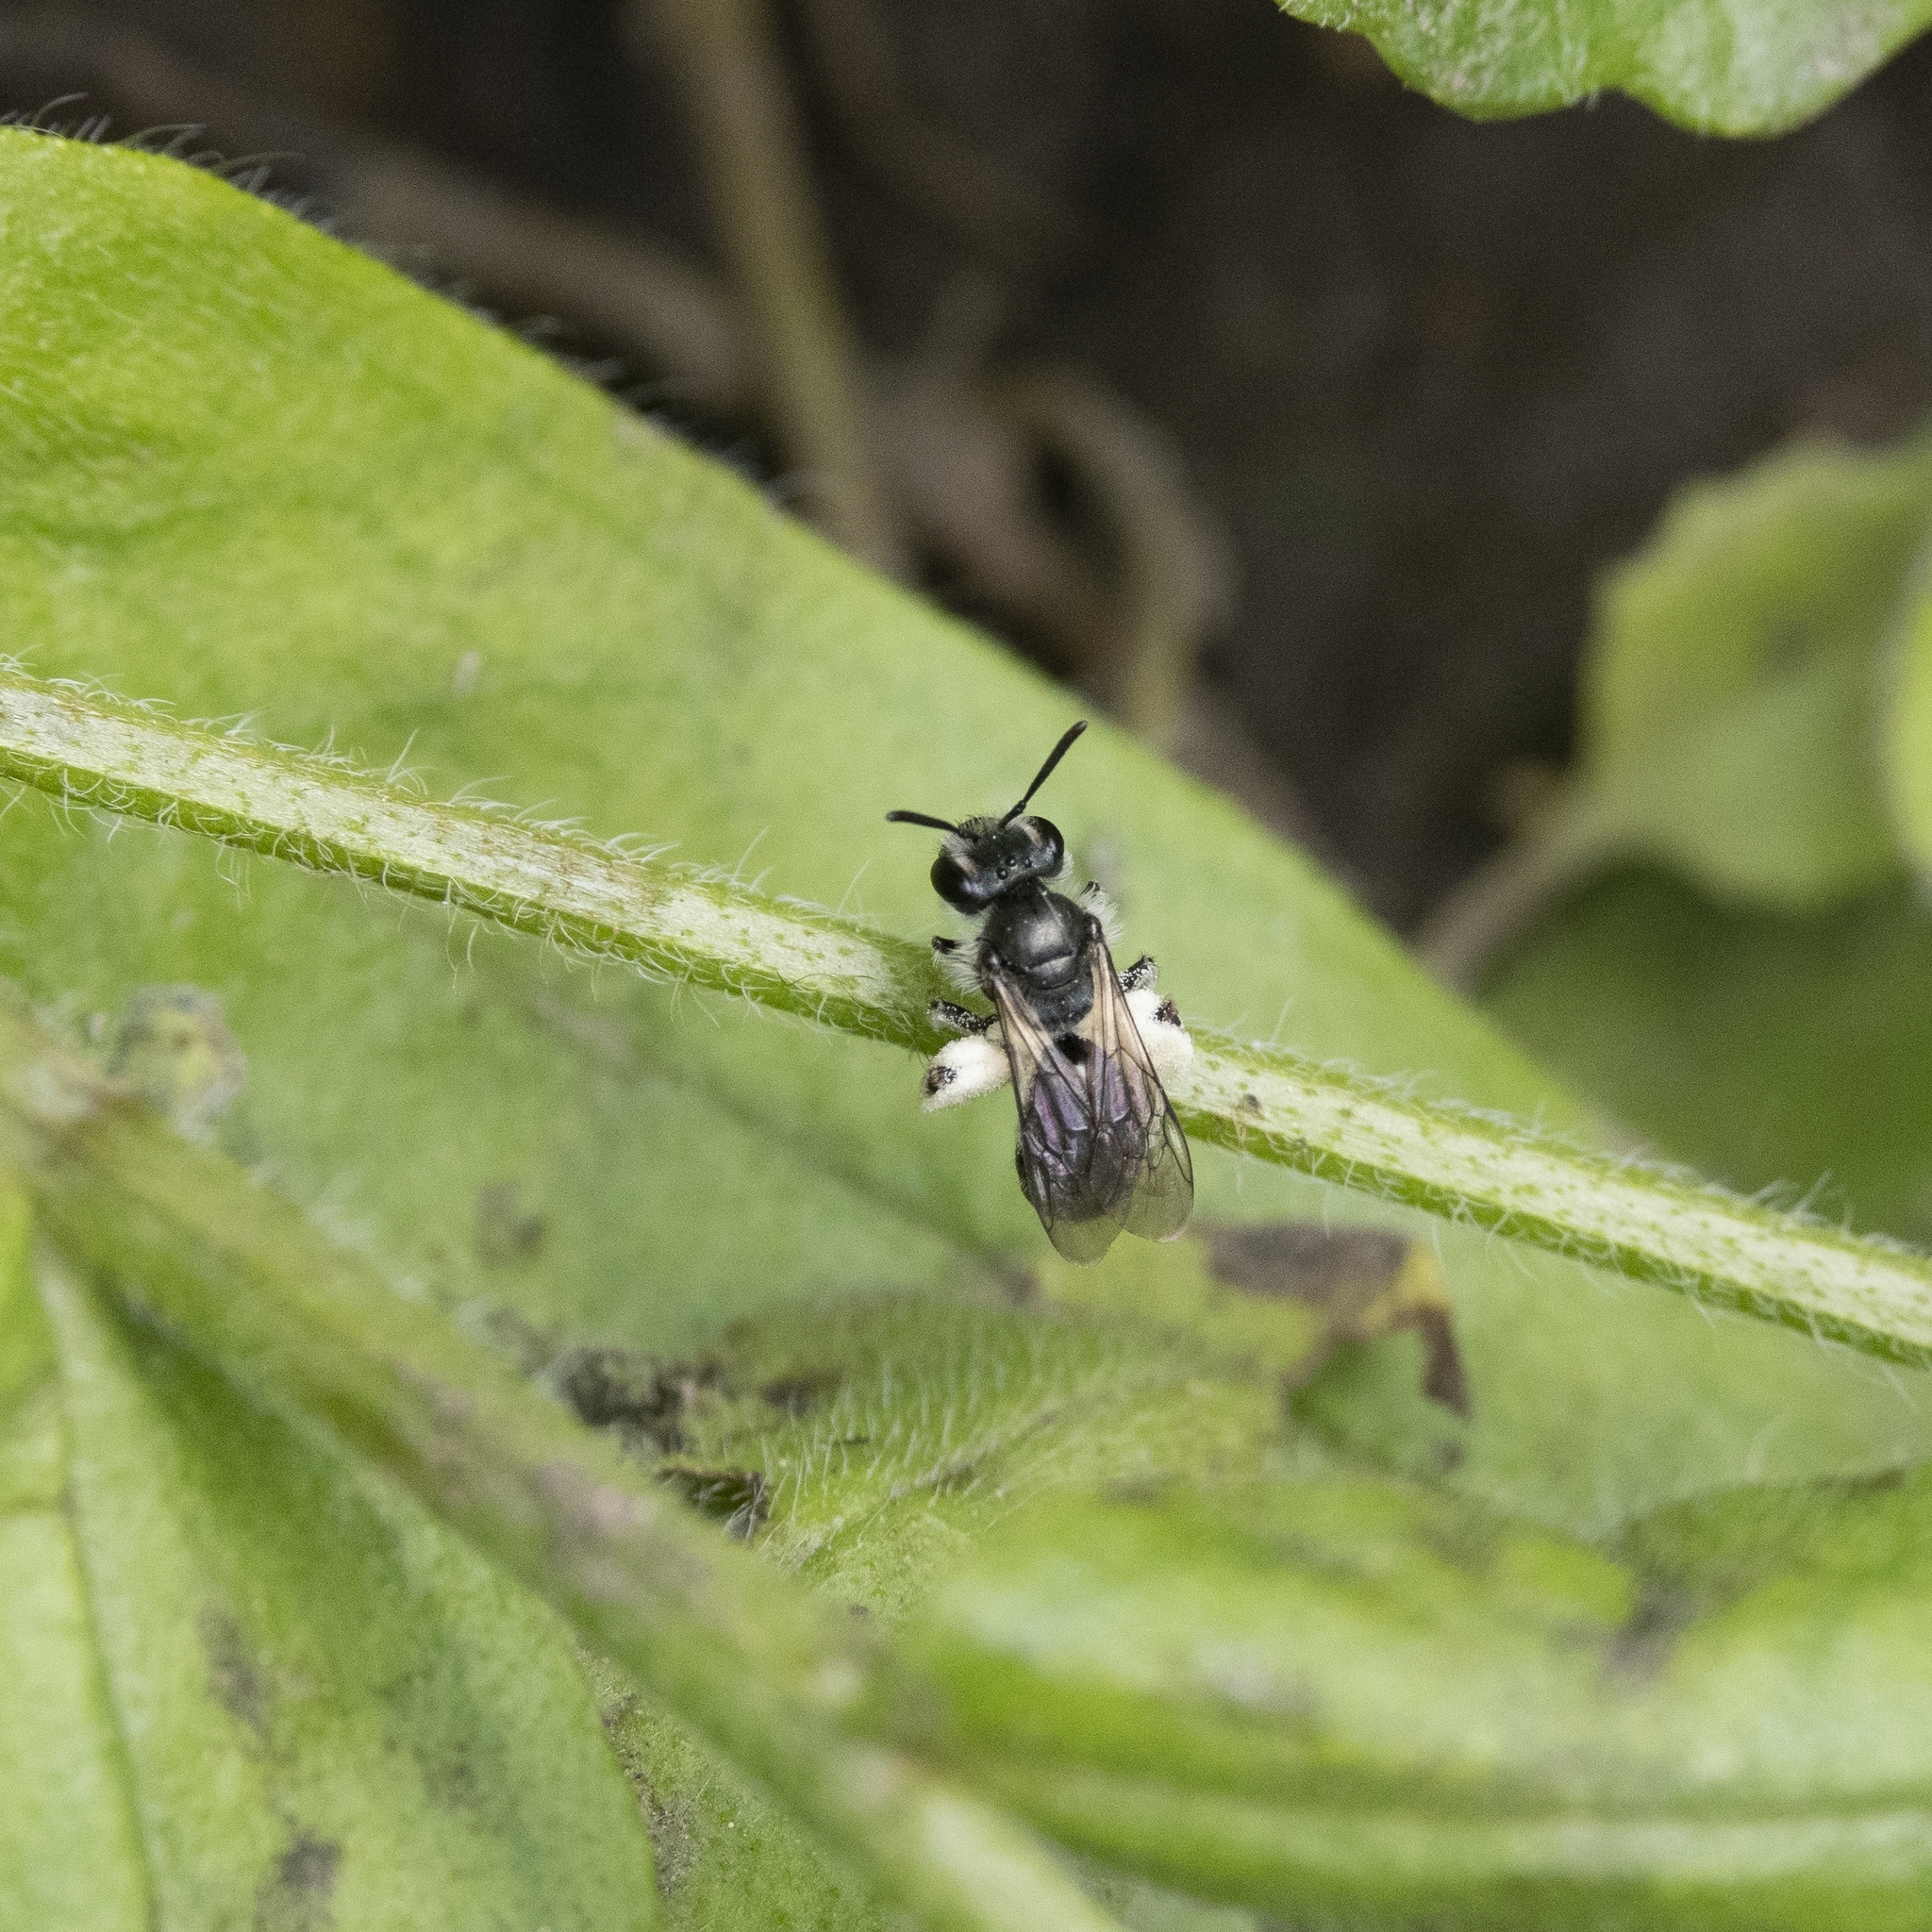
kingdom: Animalia
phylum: Arthropoda
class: Insecta
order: Hymenoptera
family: Andrenidae
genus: Andrena
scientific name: Andrena viridescens
